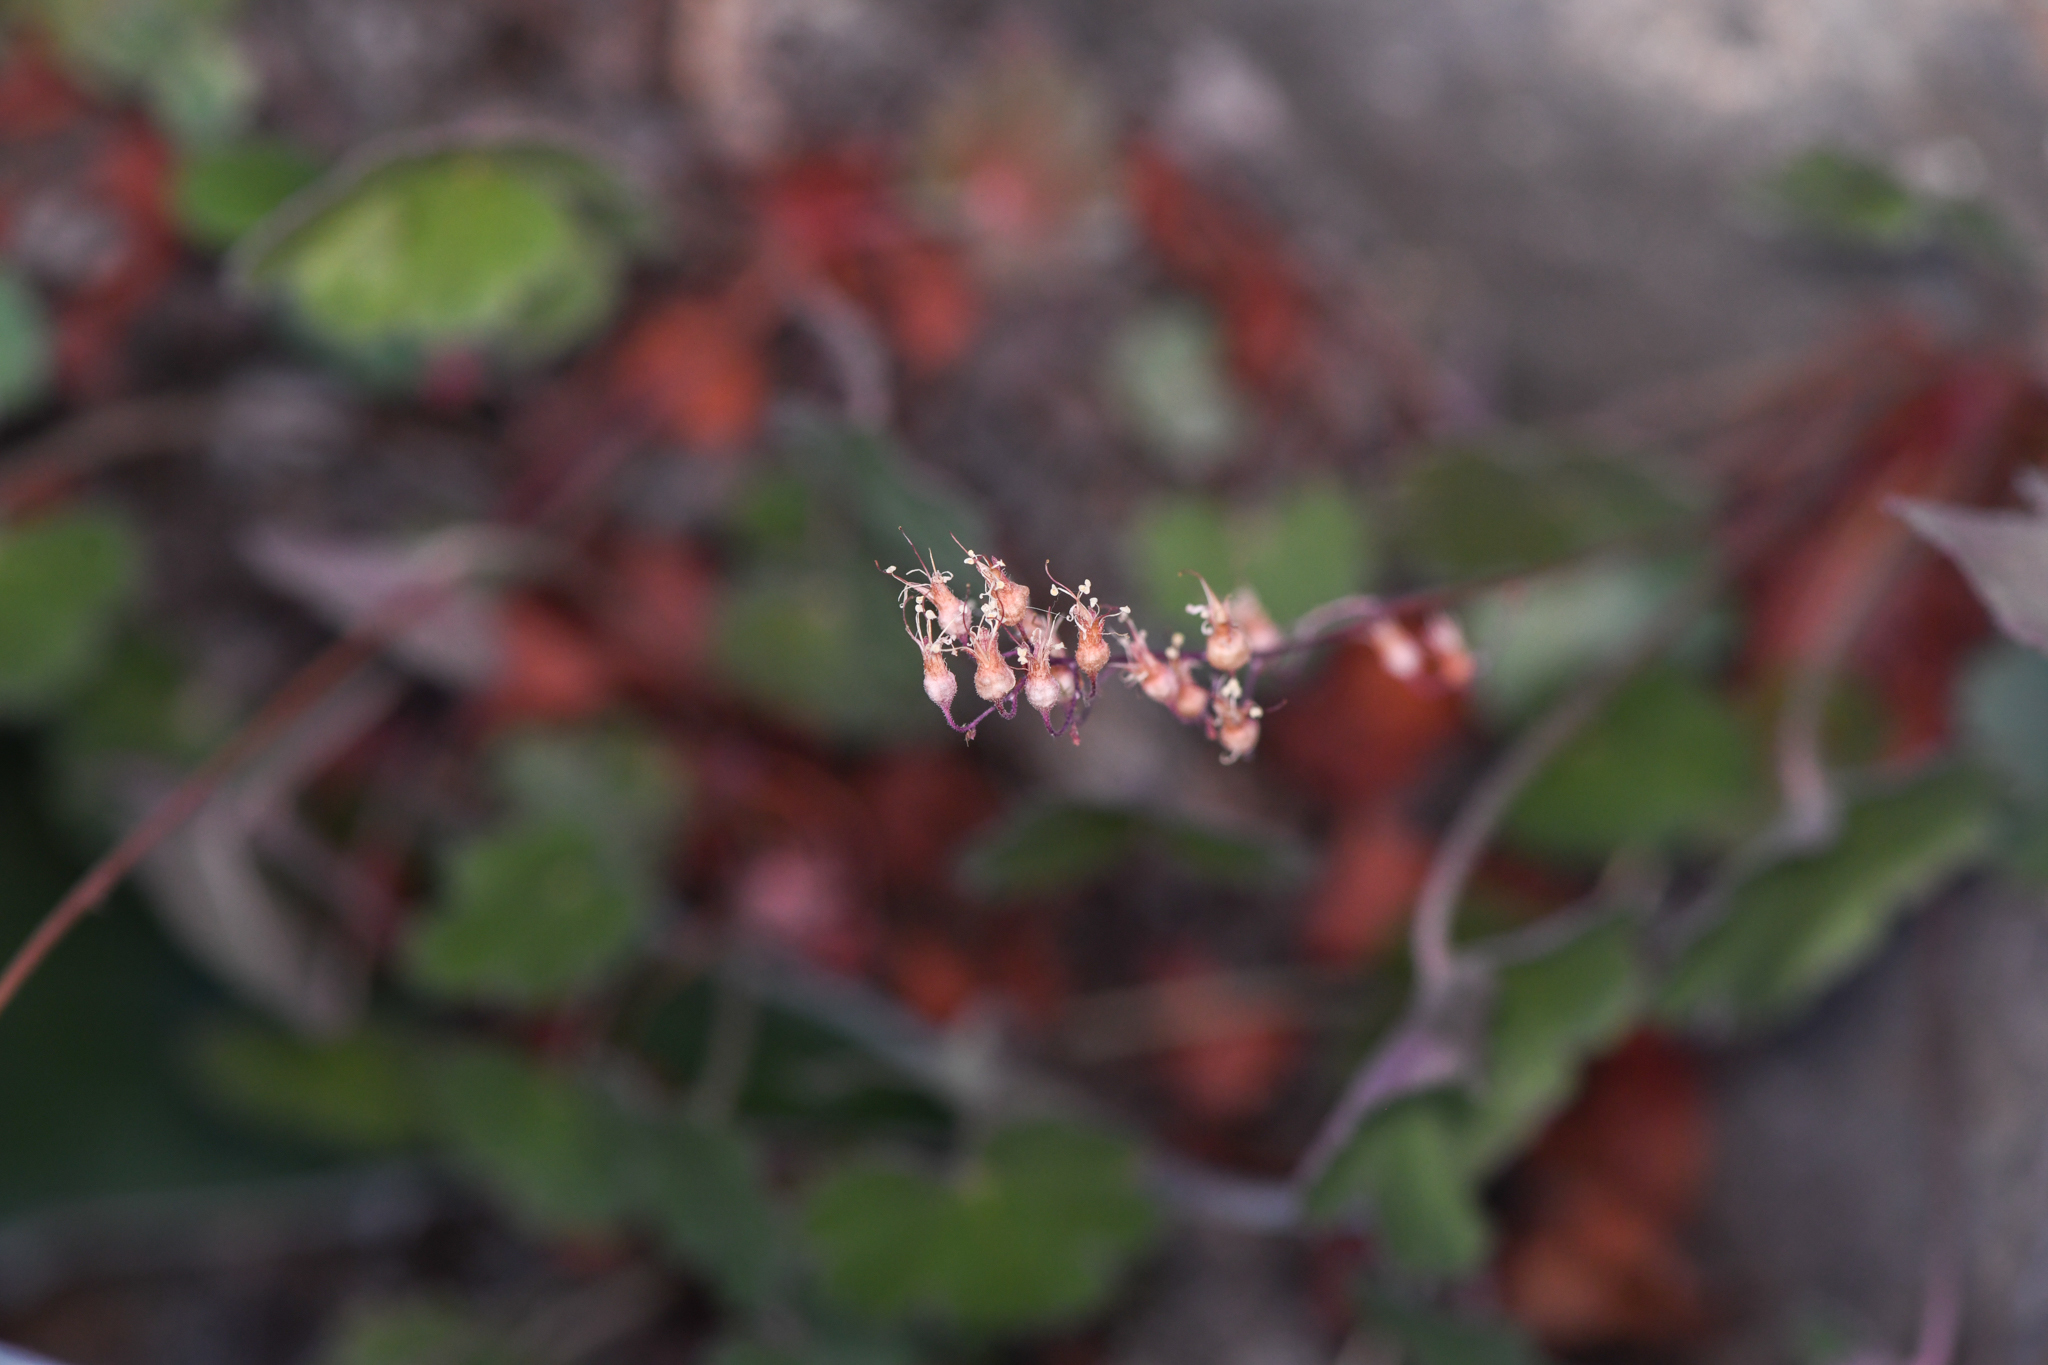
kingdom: Plantae
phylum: Tracheophyta
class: Magnoliopsida
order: Saxifragales
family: Saxifragaceae
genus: Heuchera
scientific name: Heuchera rubescens
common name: Jack-o'the-rocks
